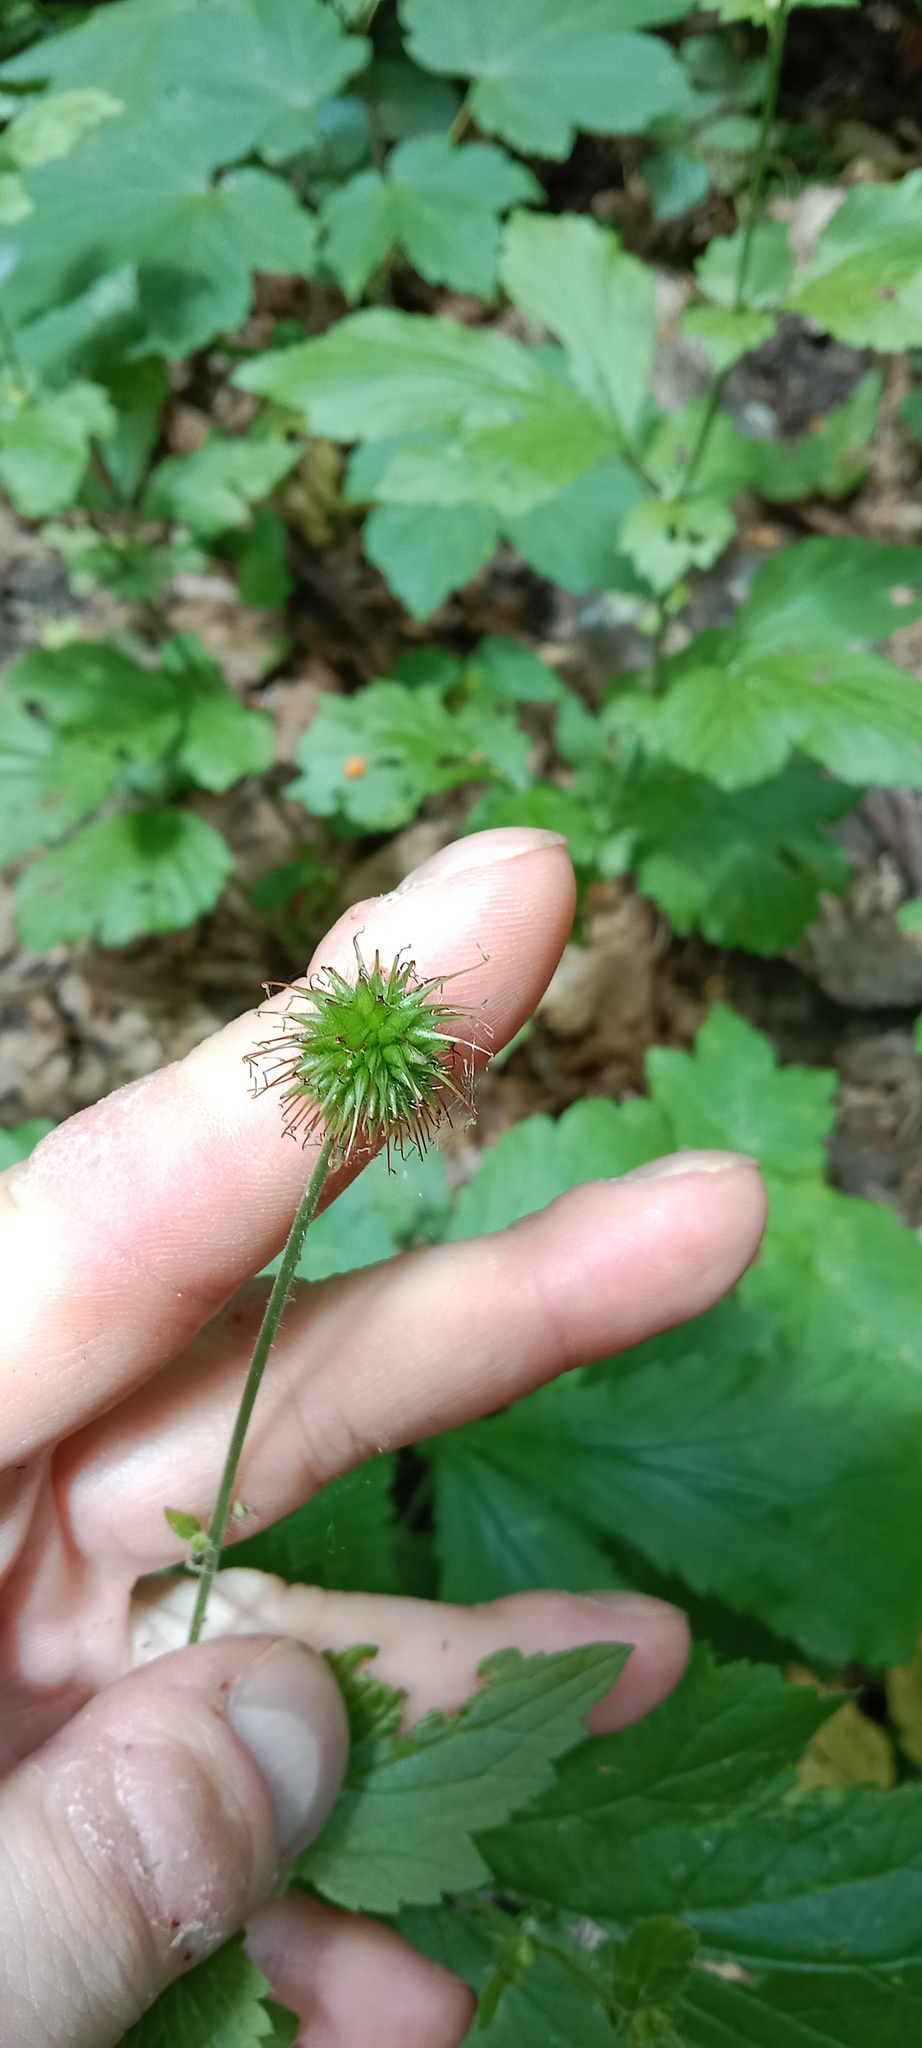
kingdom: Plantae
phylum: Tracheophyta
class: Magnoliopsida
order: Rosales
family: Rosaceae
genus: Geum
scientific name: Geum urbanum
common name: Wood avens
